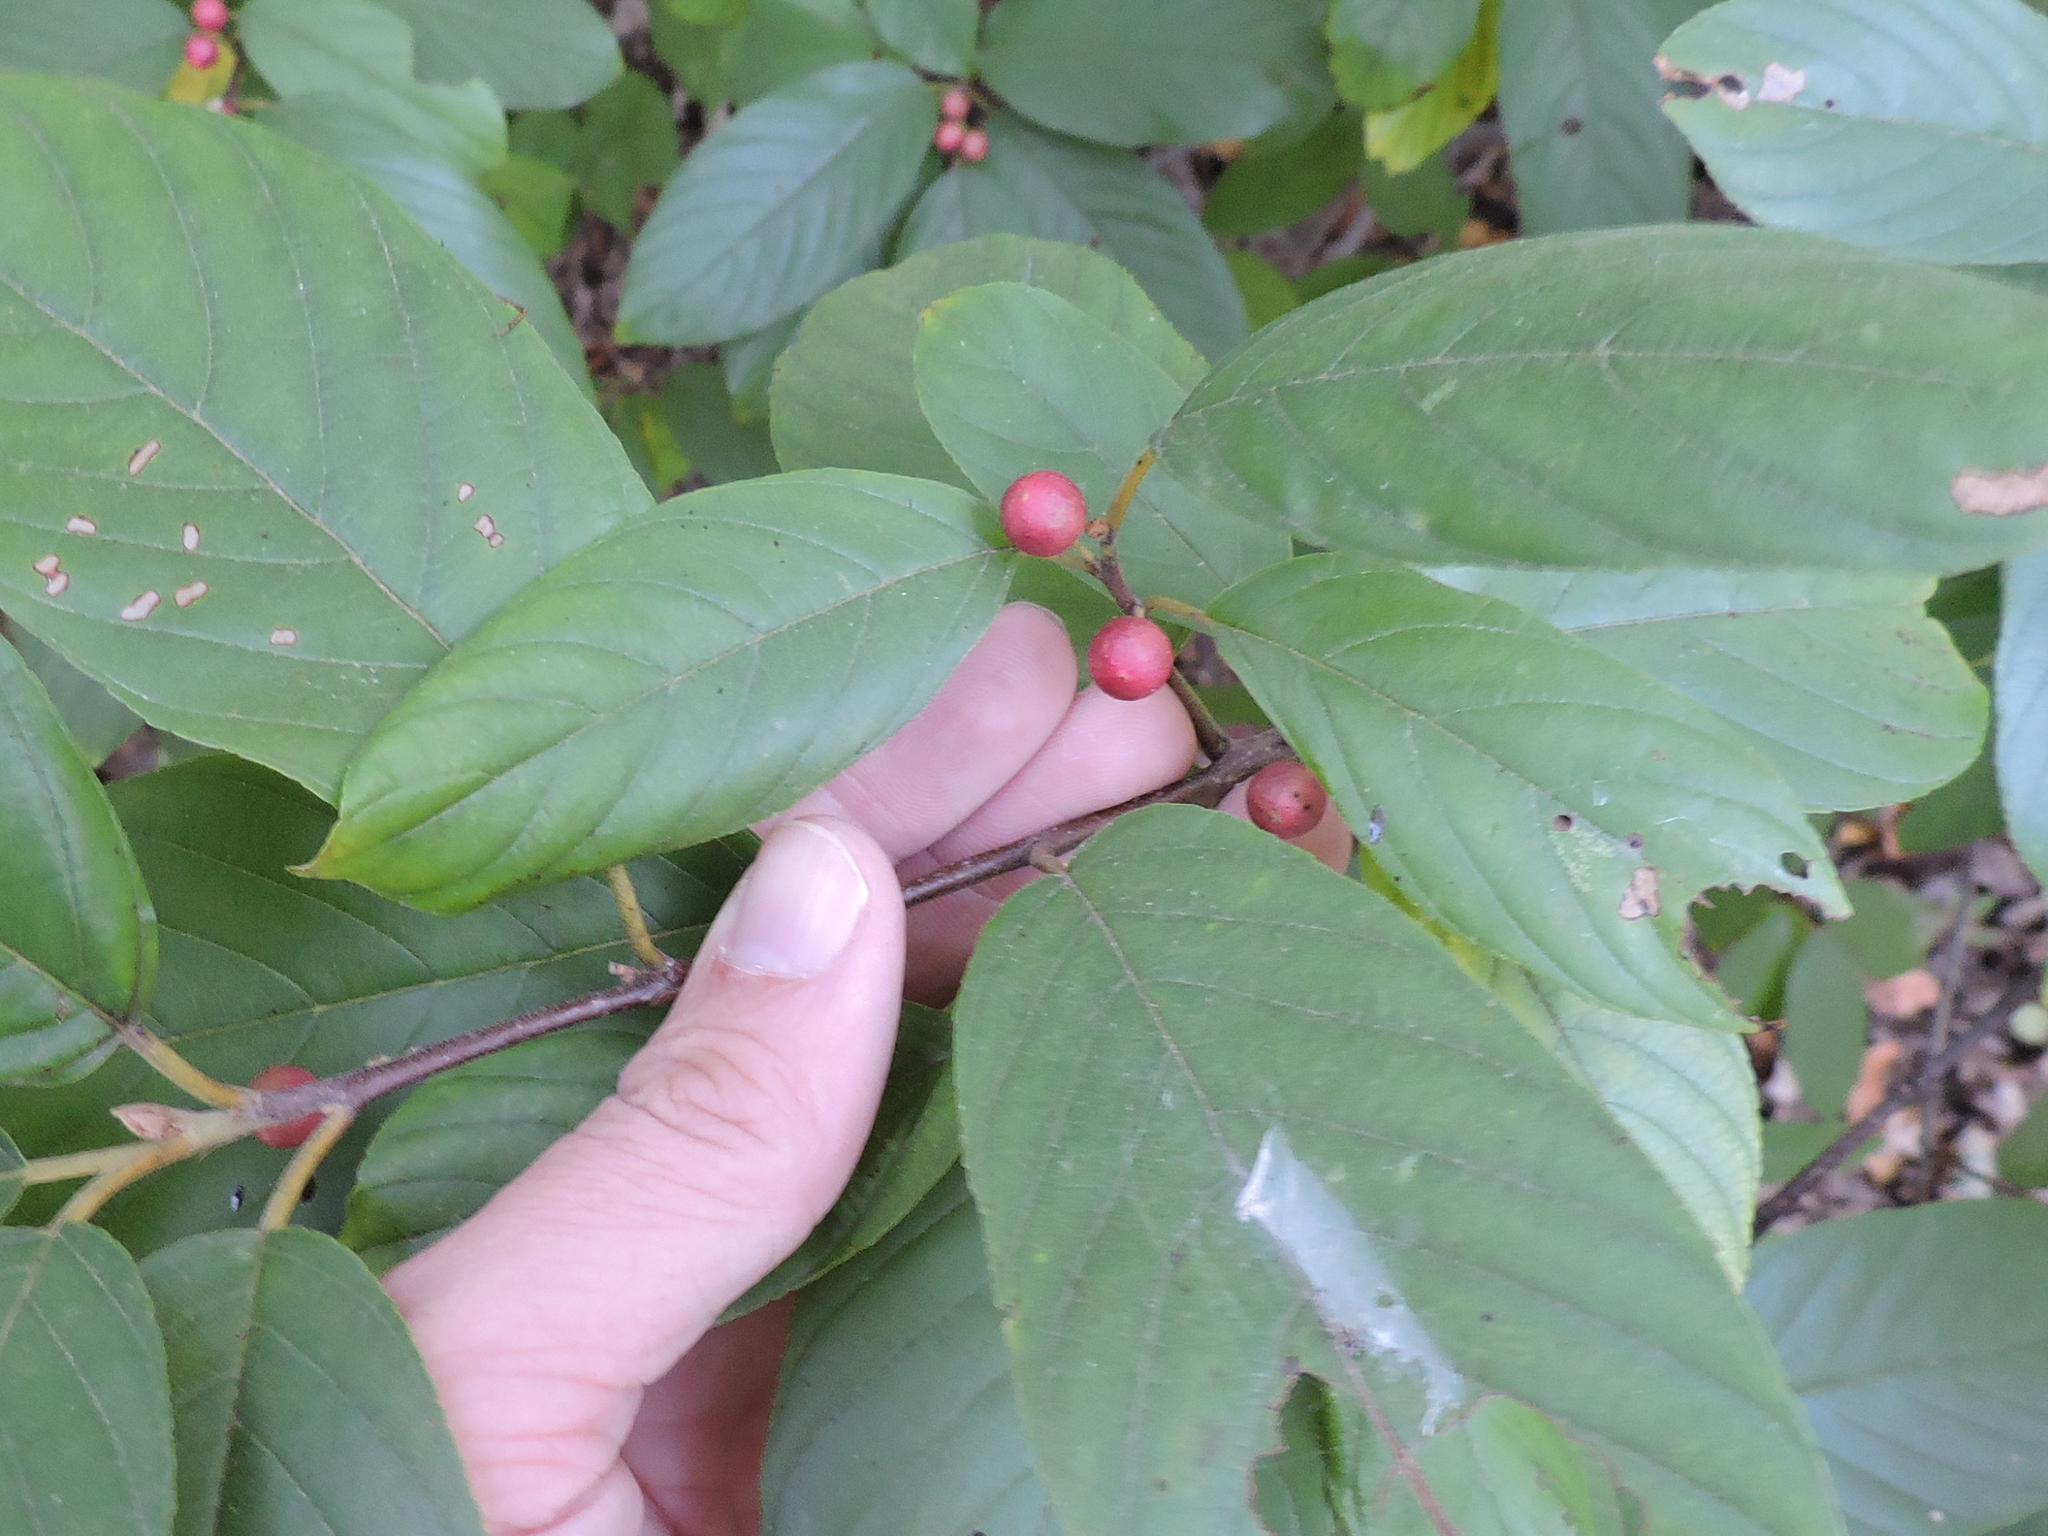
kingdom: Plantae
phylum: Tracheophyta
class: Magnoliopsida
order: Rosales
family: Rhamnaceae
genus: Frangula
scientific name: Frangula caroliniana
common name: Carolina buckthorn
